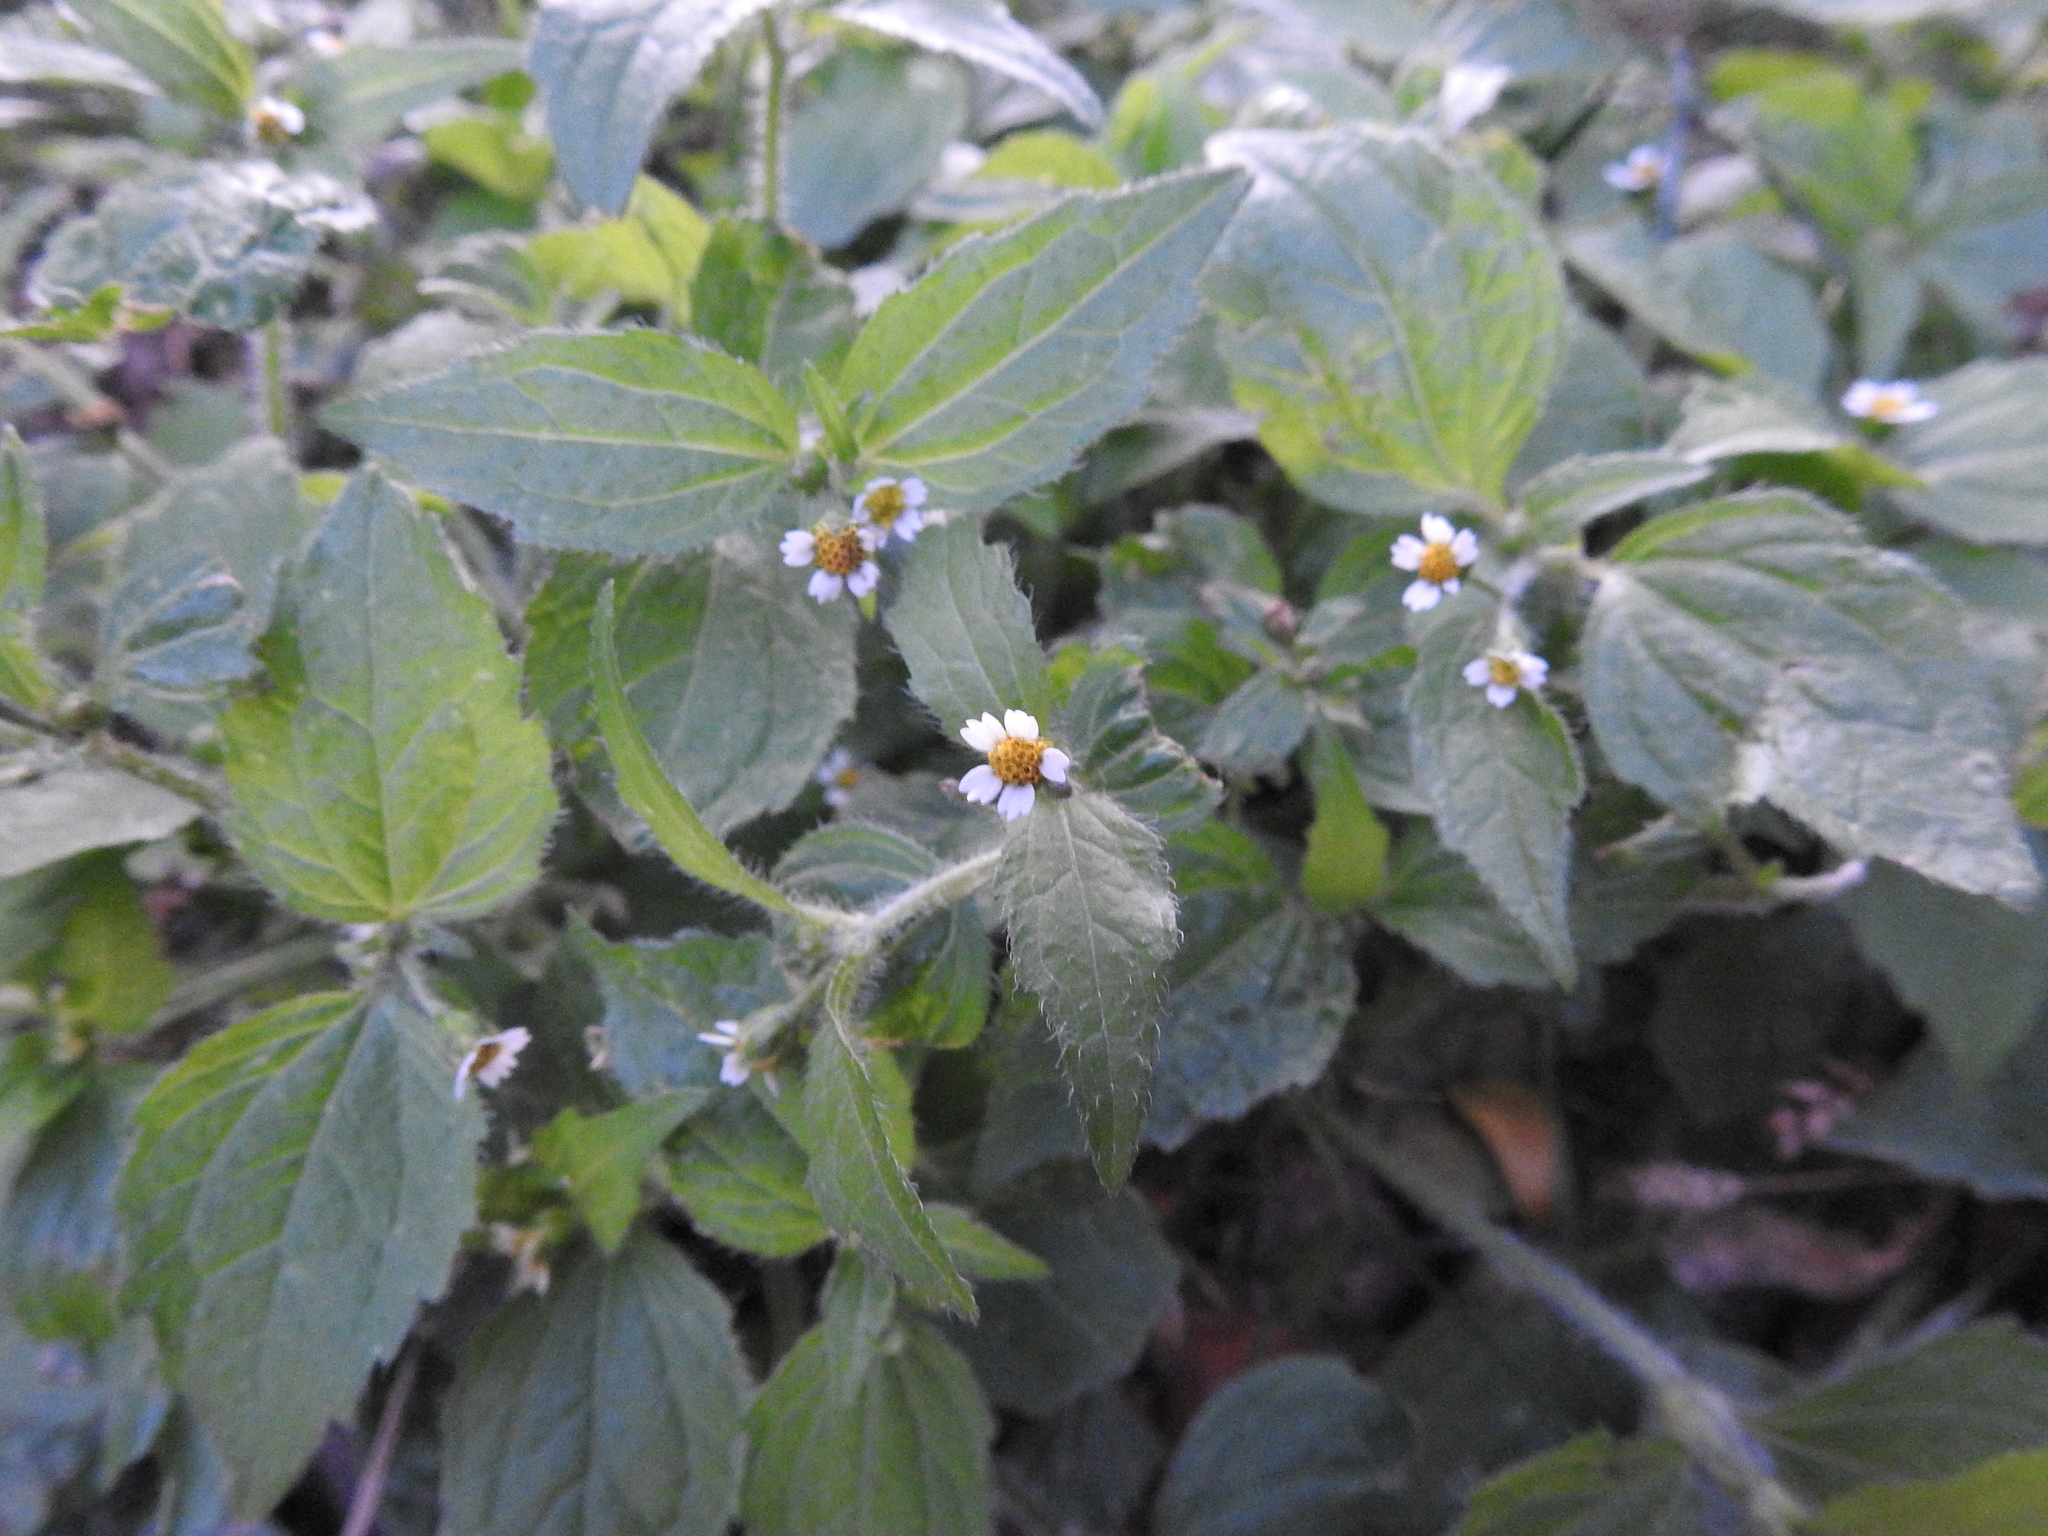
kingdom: Plantae
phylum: Tracheophyta
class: Magnoliopsida
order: Asterales
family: Asteraceae
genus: Galinsoga
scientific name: Galinsoga quadriradiata
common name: Shaggy soldier
